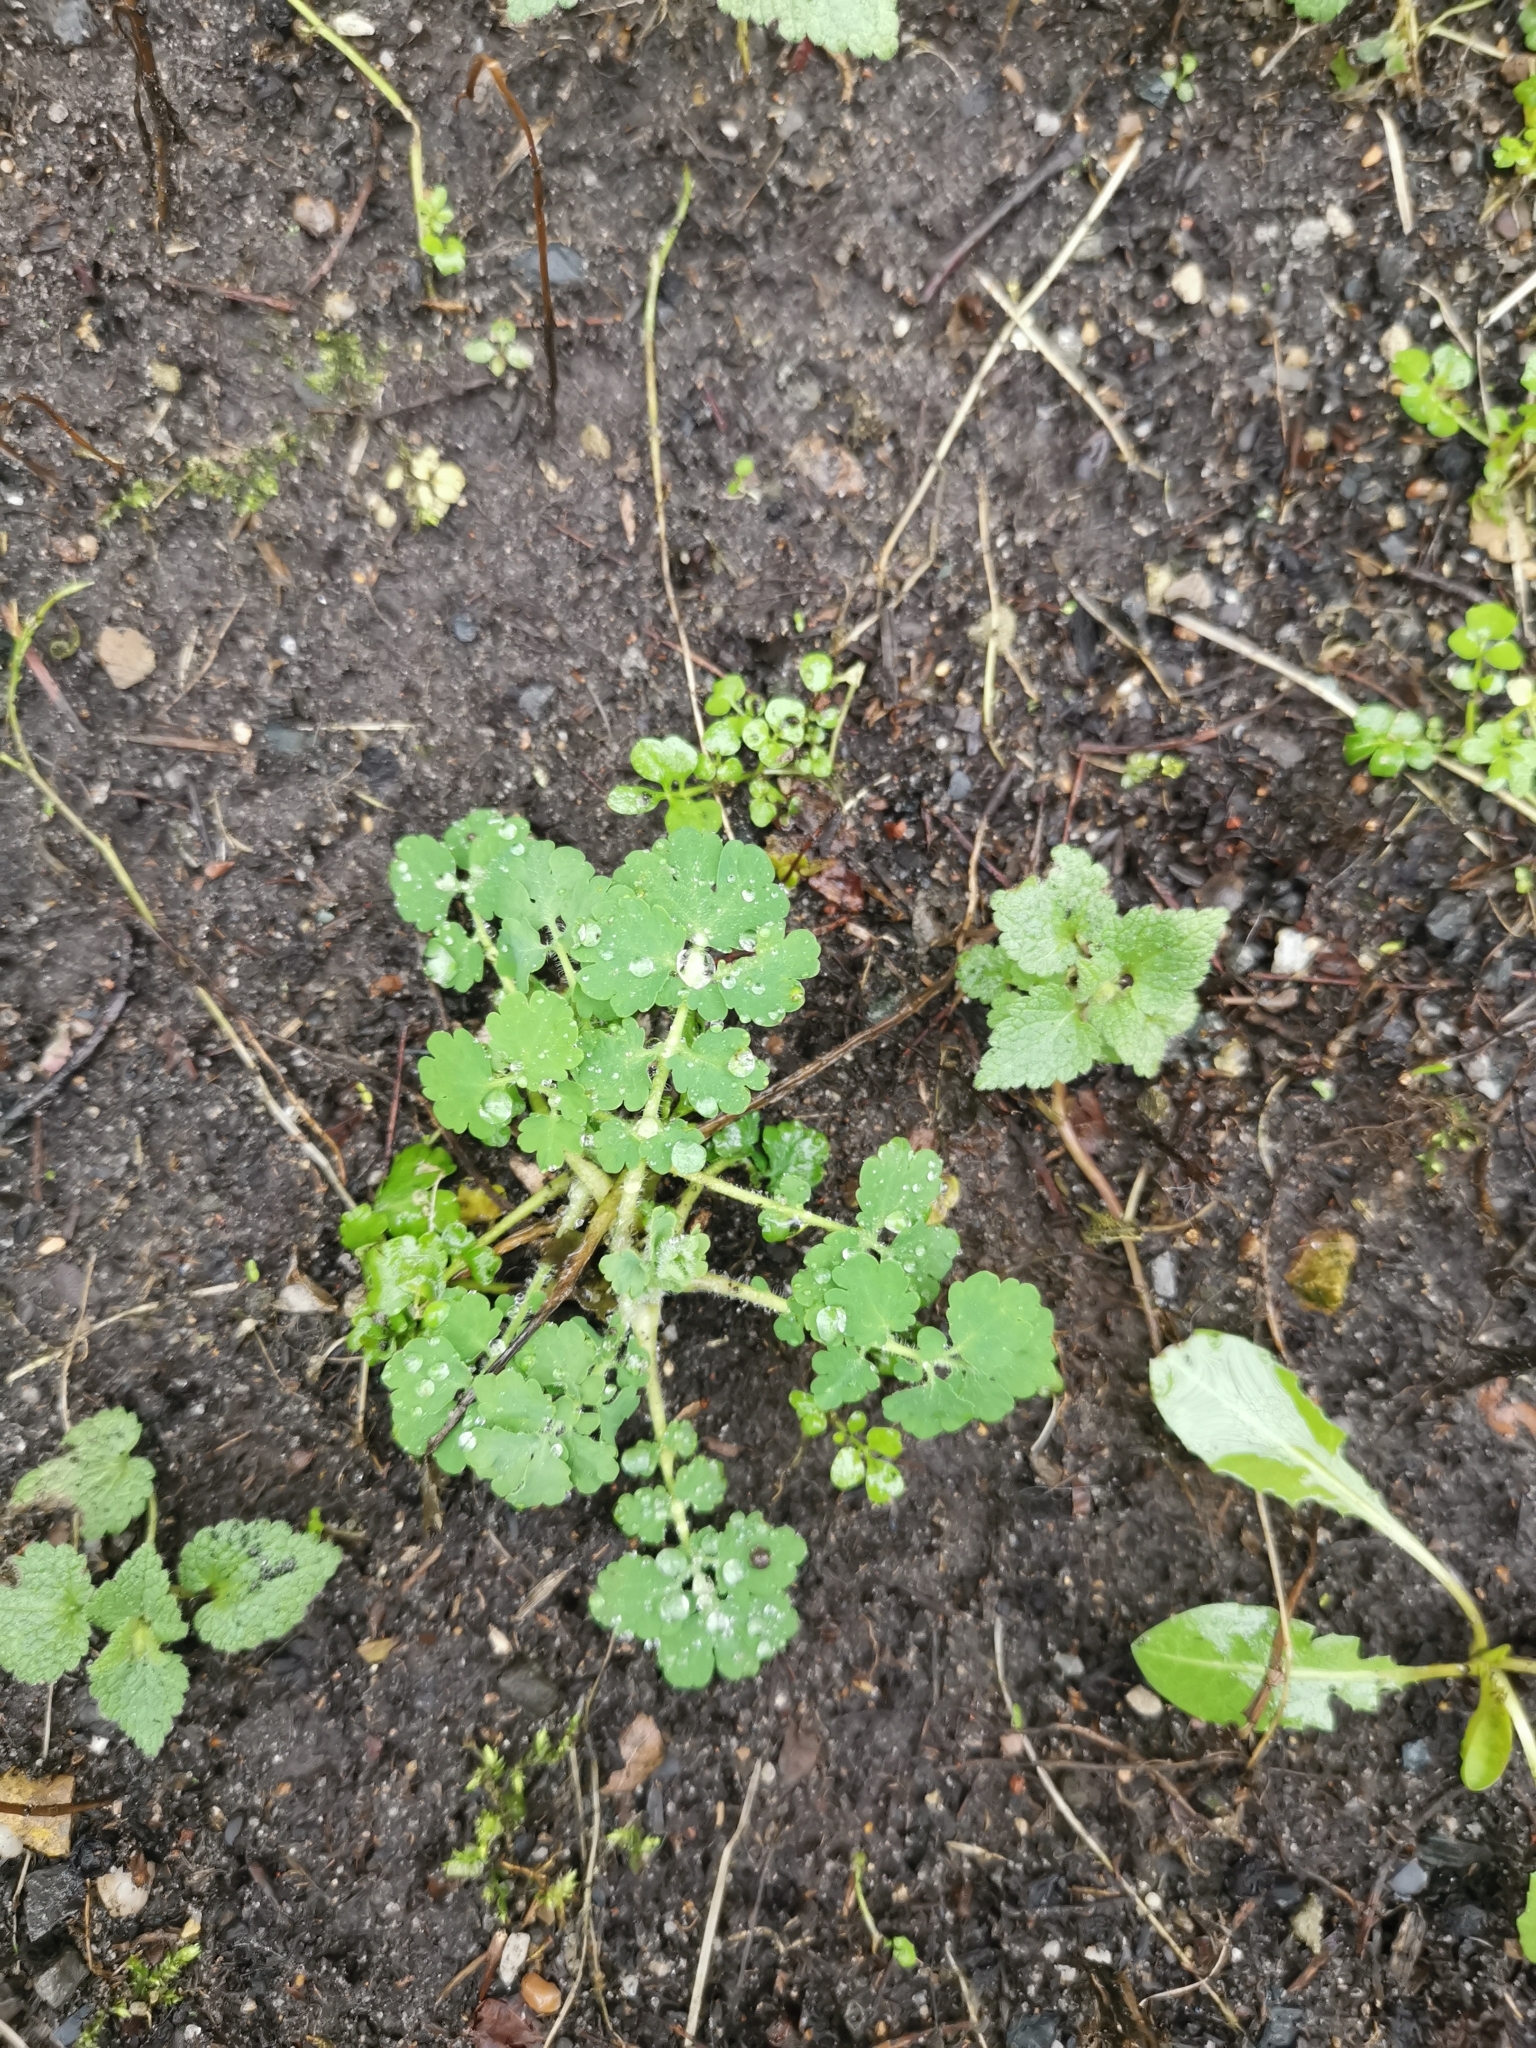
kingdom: Plantae
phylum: Tracheophyta
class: Magnoliopsida
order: Ranunculales
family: Papaveraceae
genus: Chelidonium
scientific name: Chelidonium majus
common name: Greater celandine
